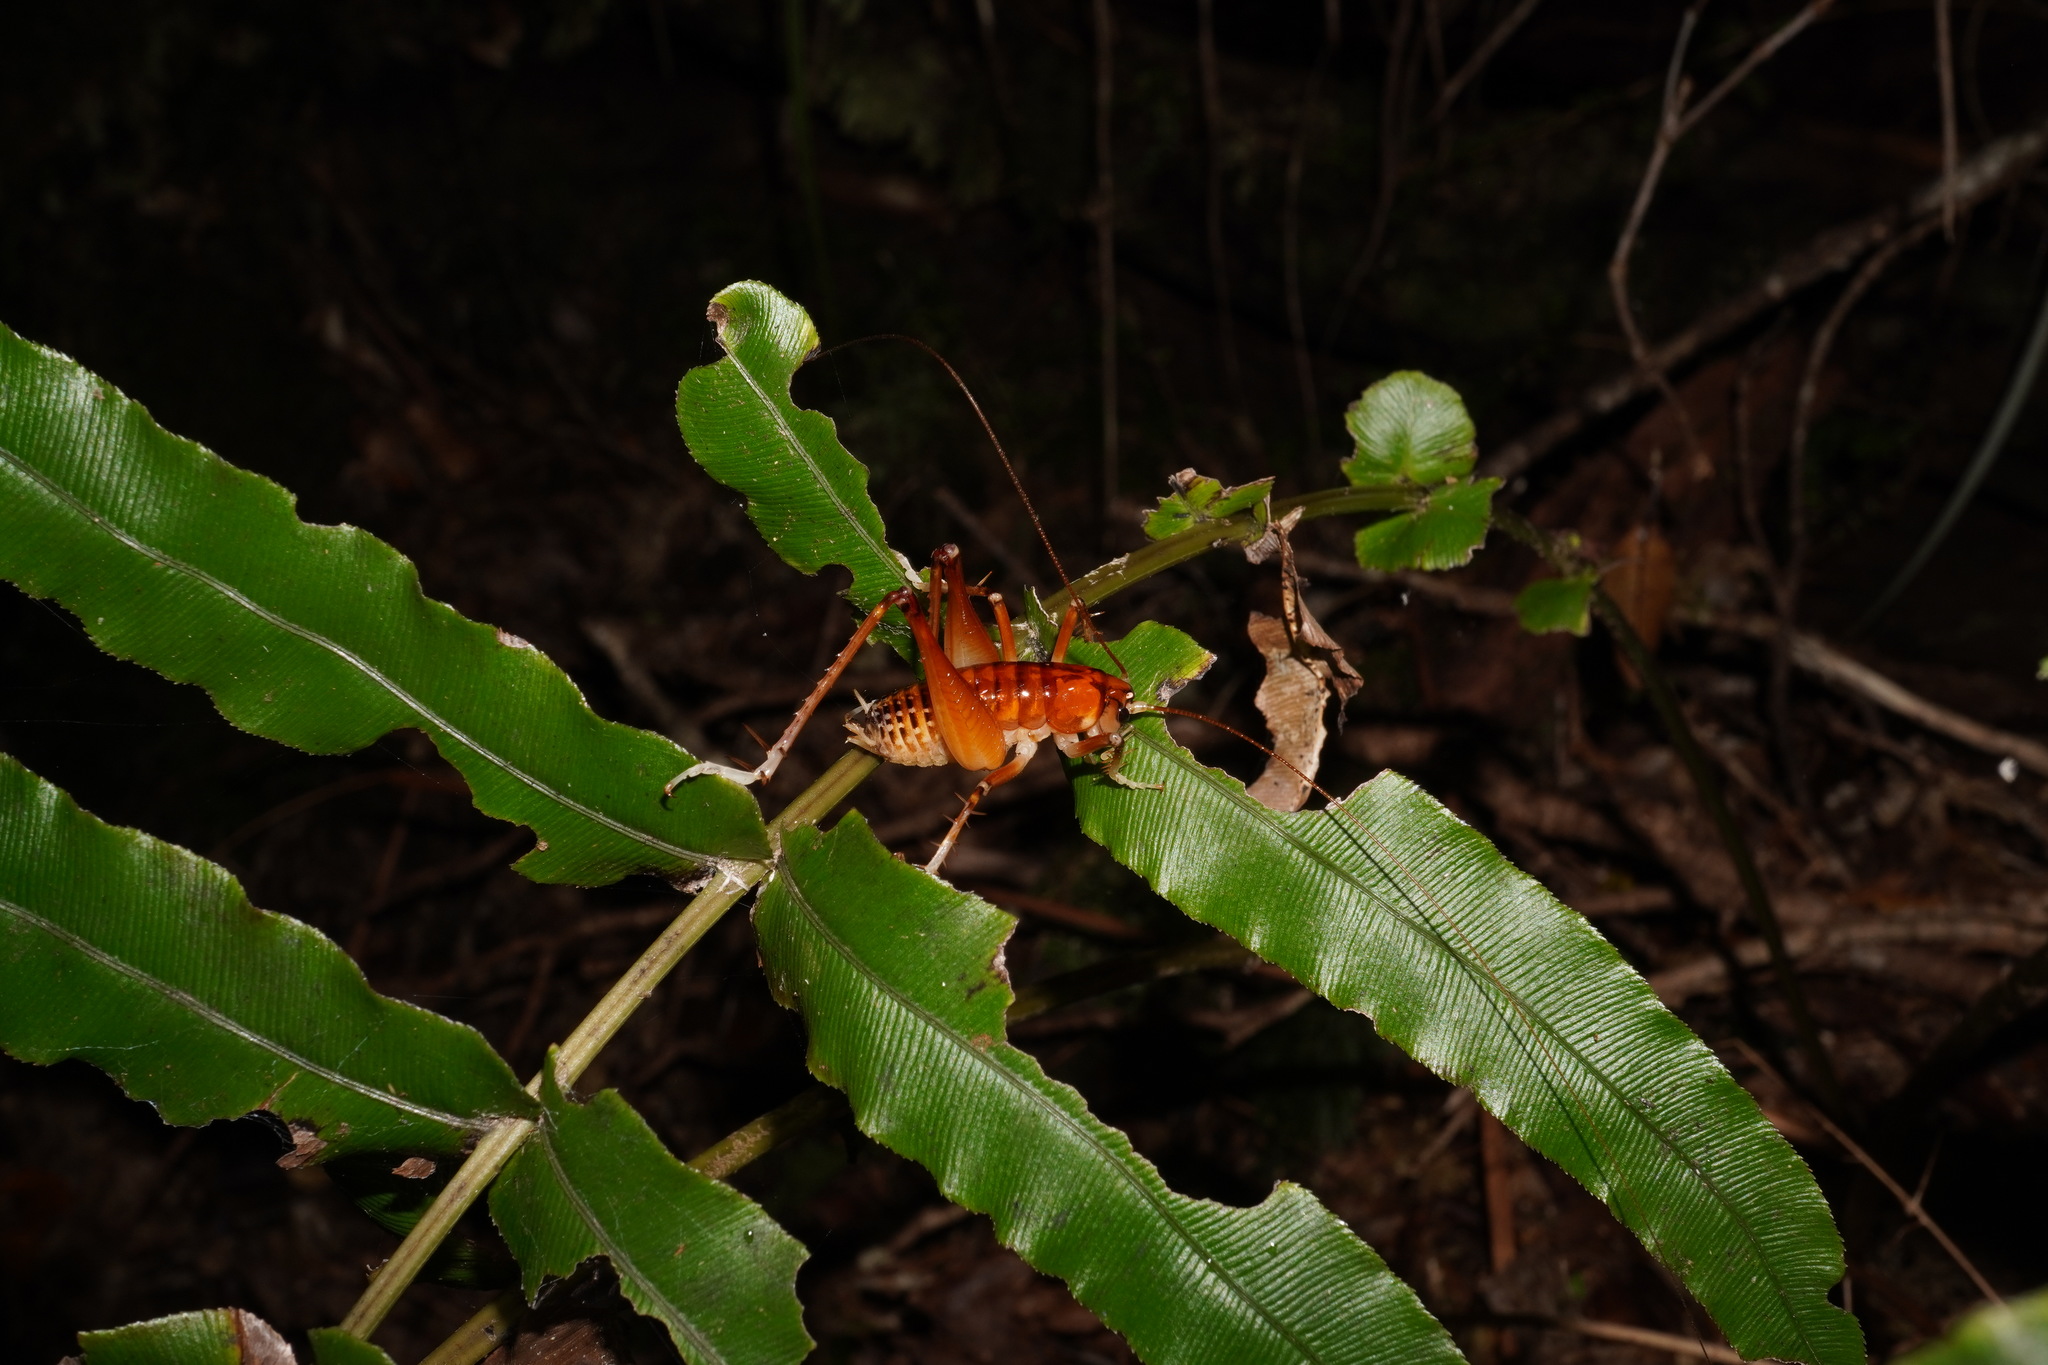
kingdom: Animalia
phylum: Arthropoda
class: Insecta
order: Orthoptera
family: Anostostomatidae
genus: Hemiandrus
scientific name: Hemiandrus jacinda
